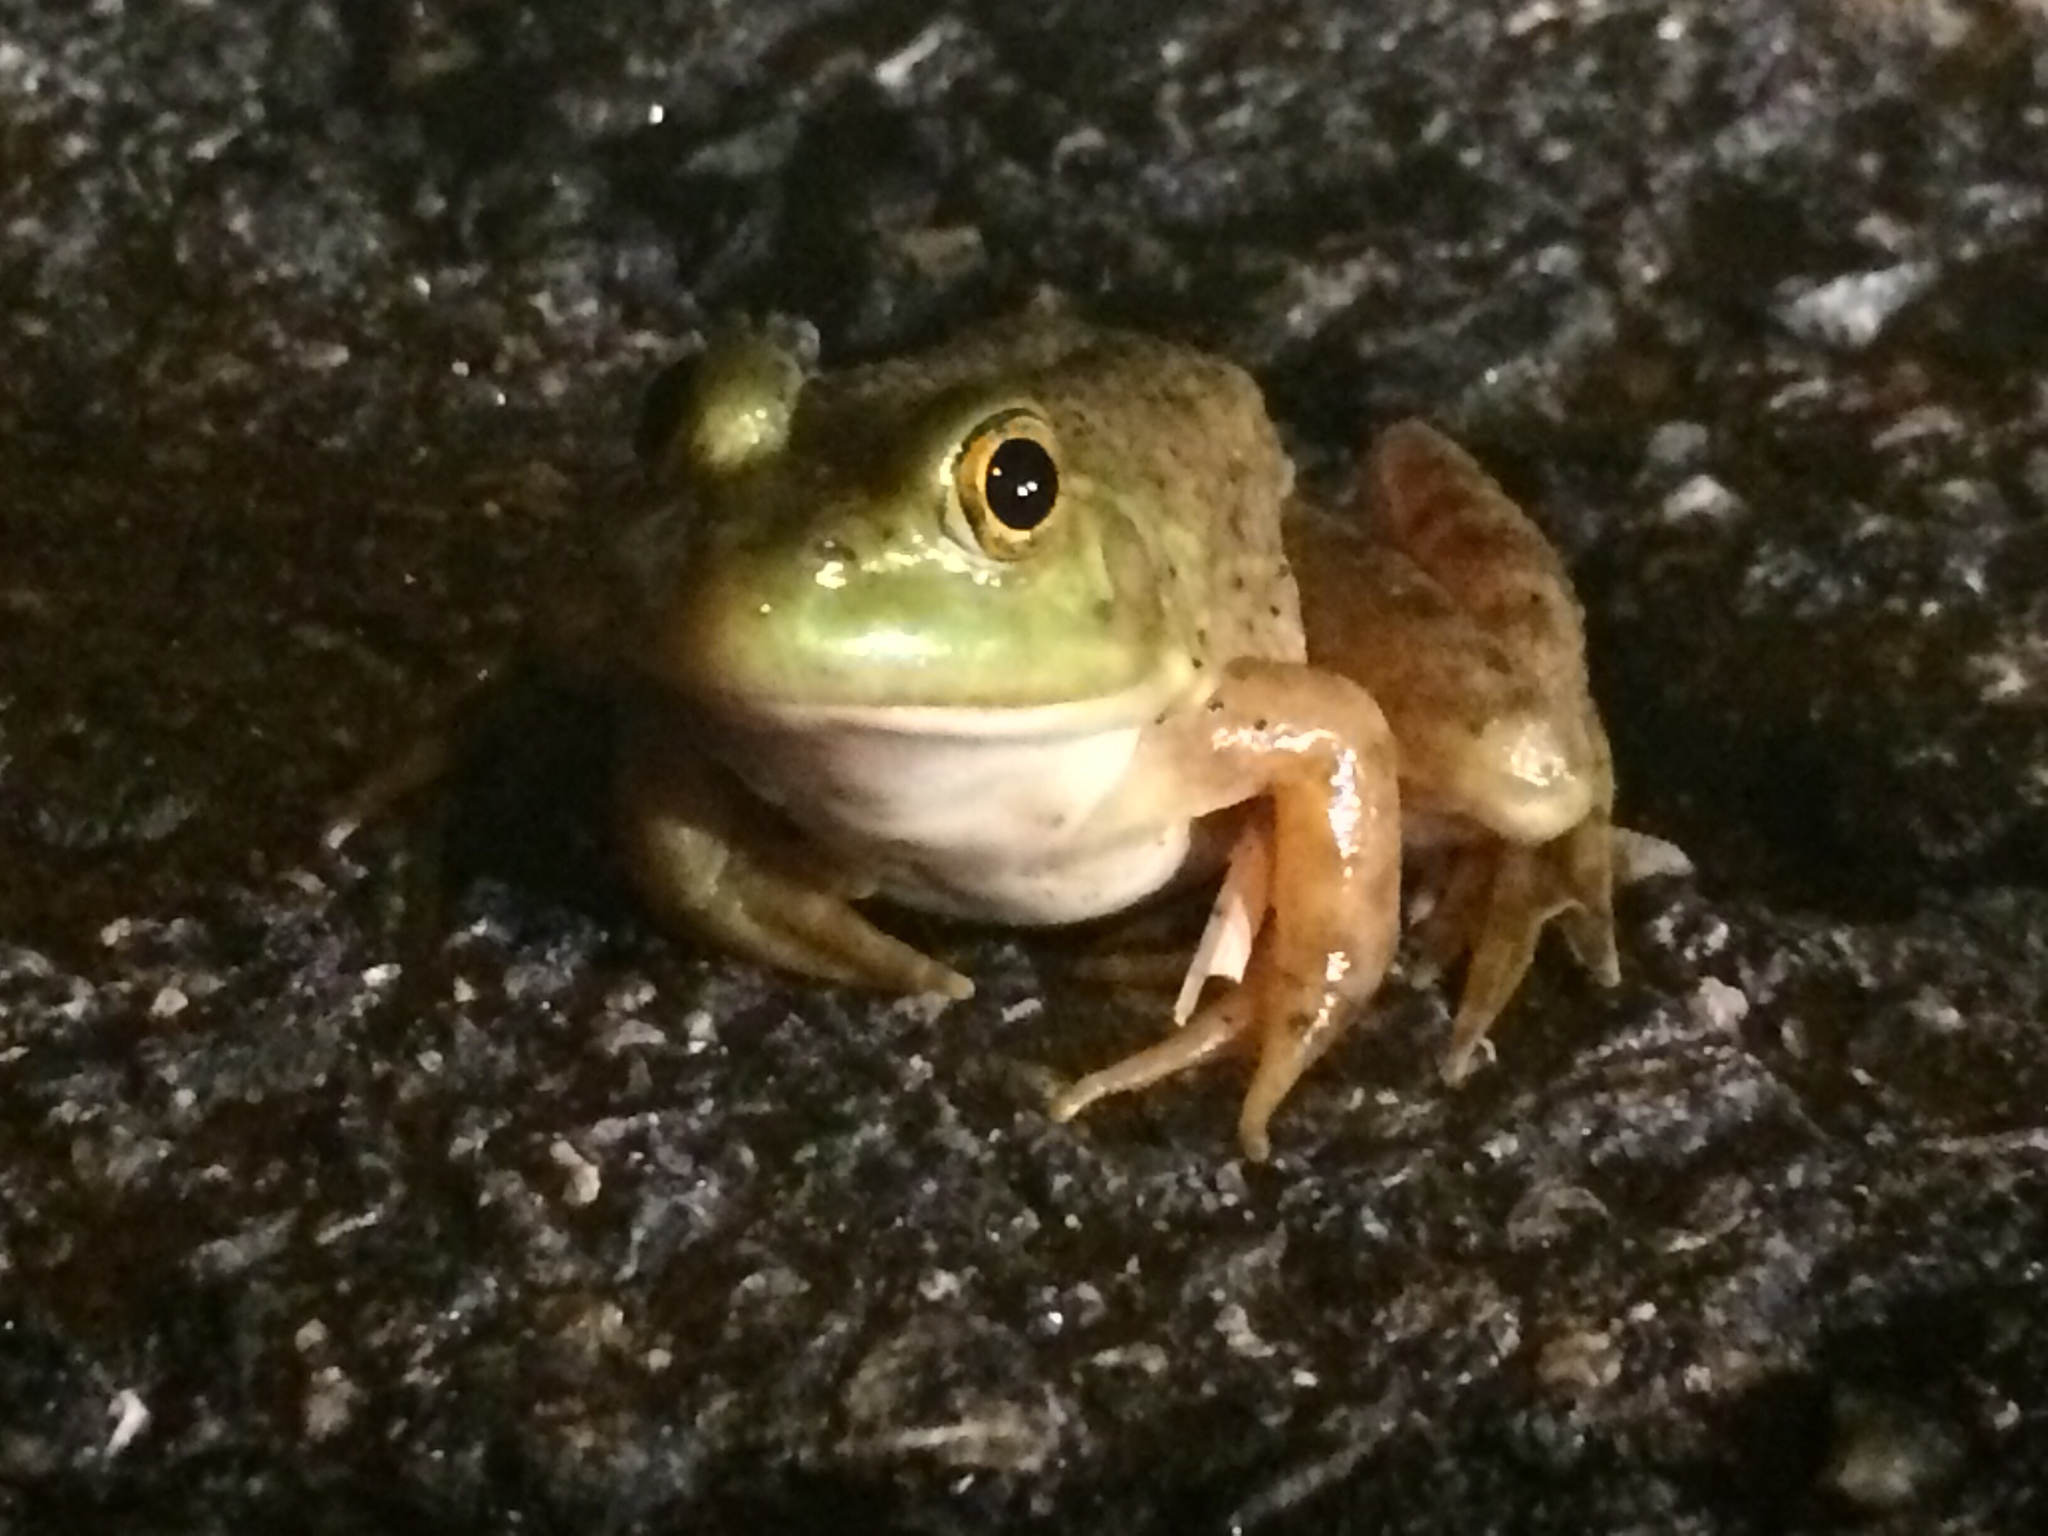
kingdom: Animalia
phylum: Chordata
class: Amphibia
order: Anura
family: Ranidae
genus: Lithobates
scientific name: Lithobates catesbeianus
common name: American bullfrog
